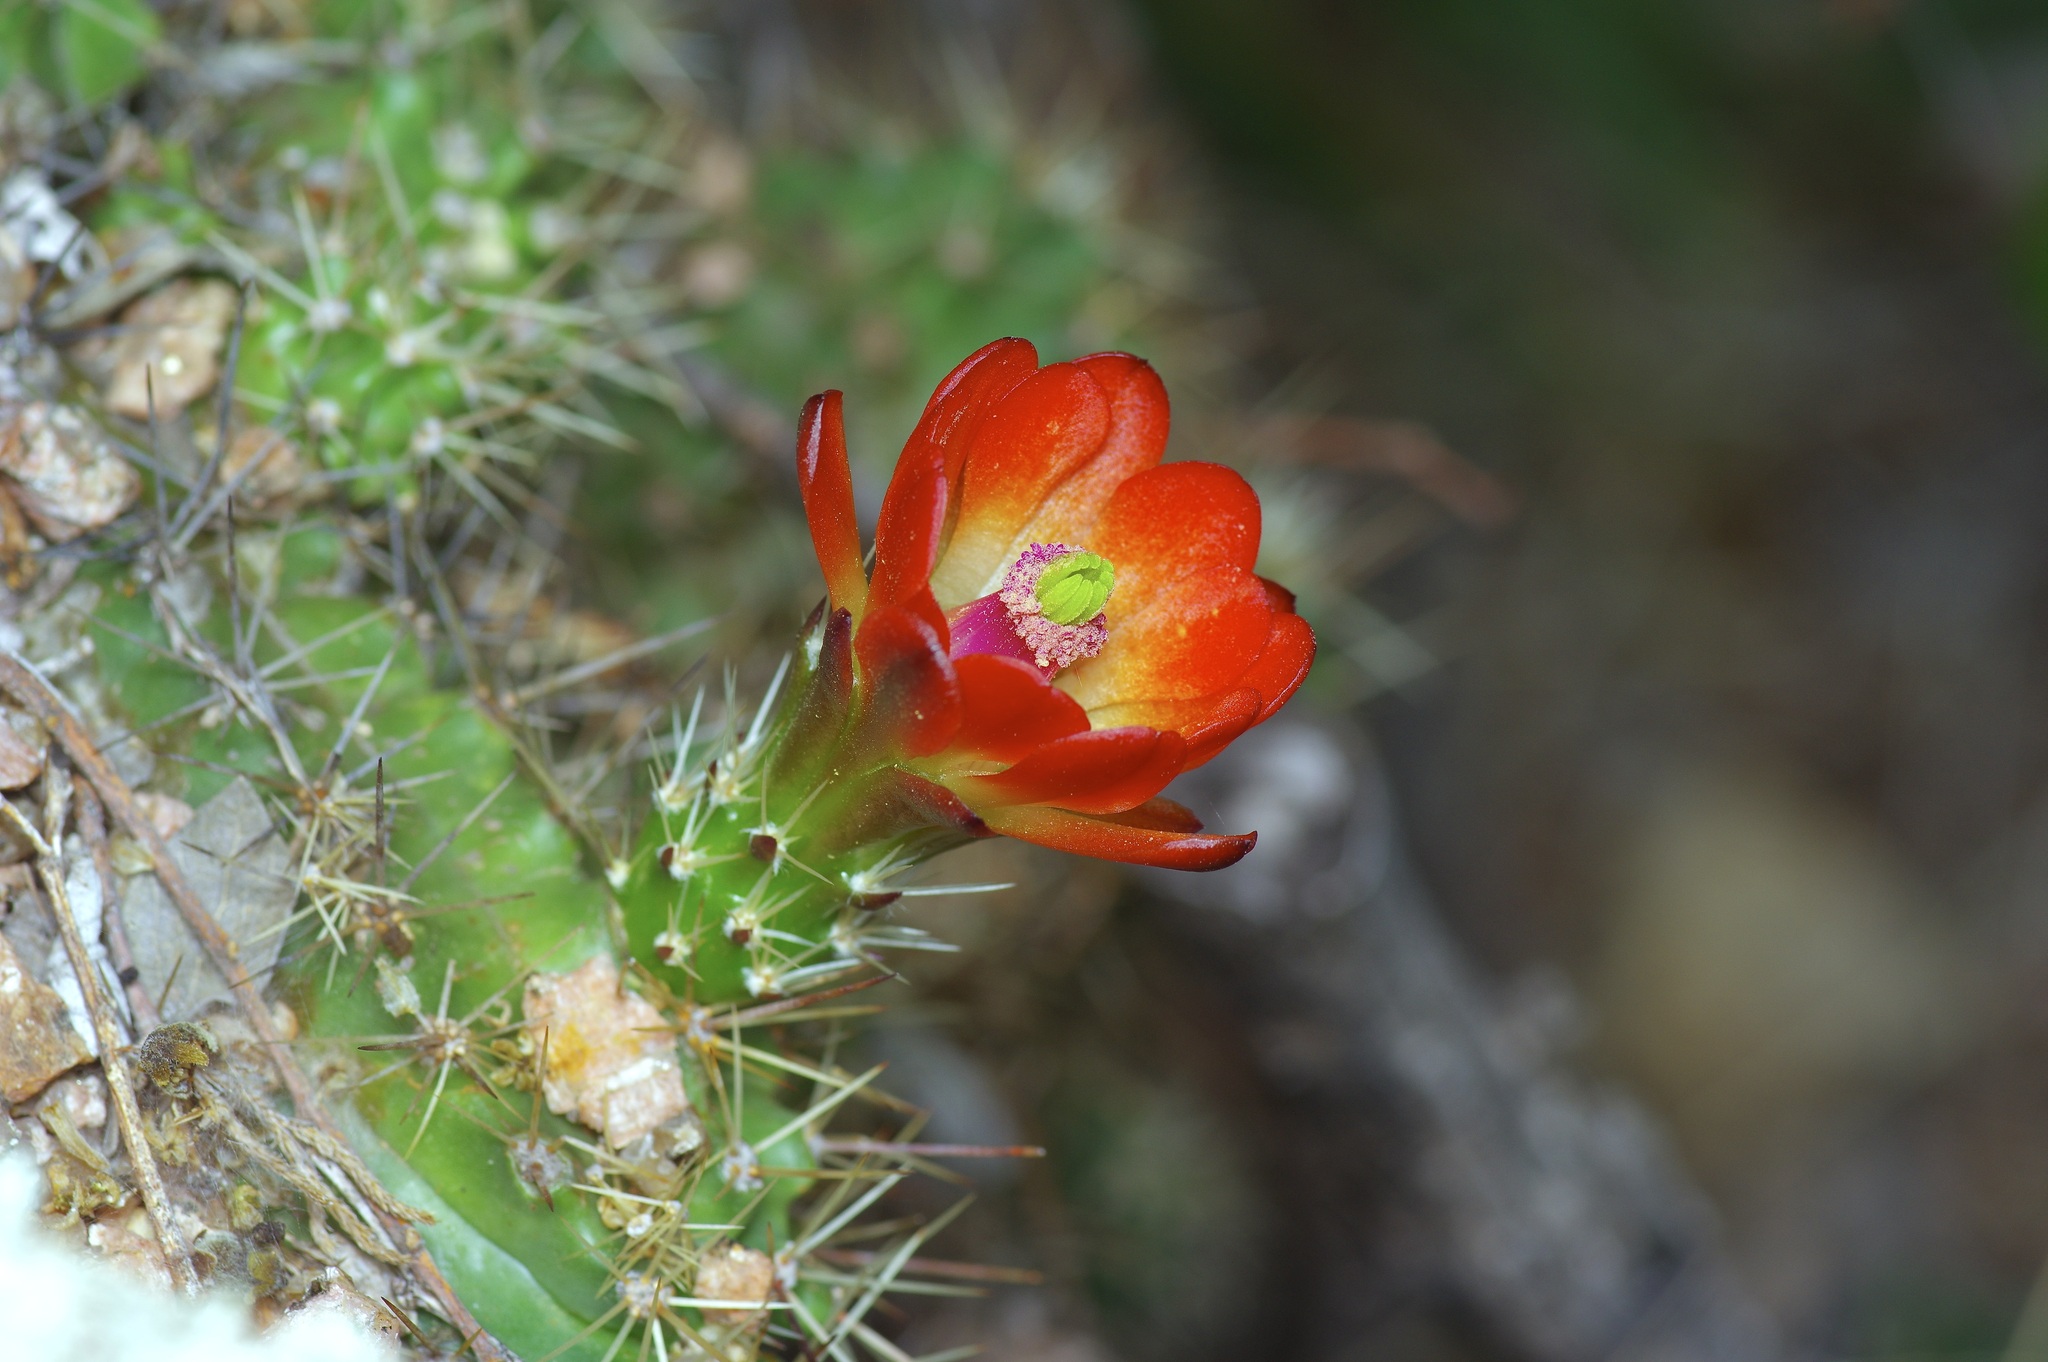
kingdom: Plantae
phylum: Tracheophyta
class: Magnoliopsida
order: Caryophyllales
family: Cactaceae
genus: Echinocereus
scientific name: Echinocereus coccineus
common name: Scarlet hedgehog cactus
